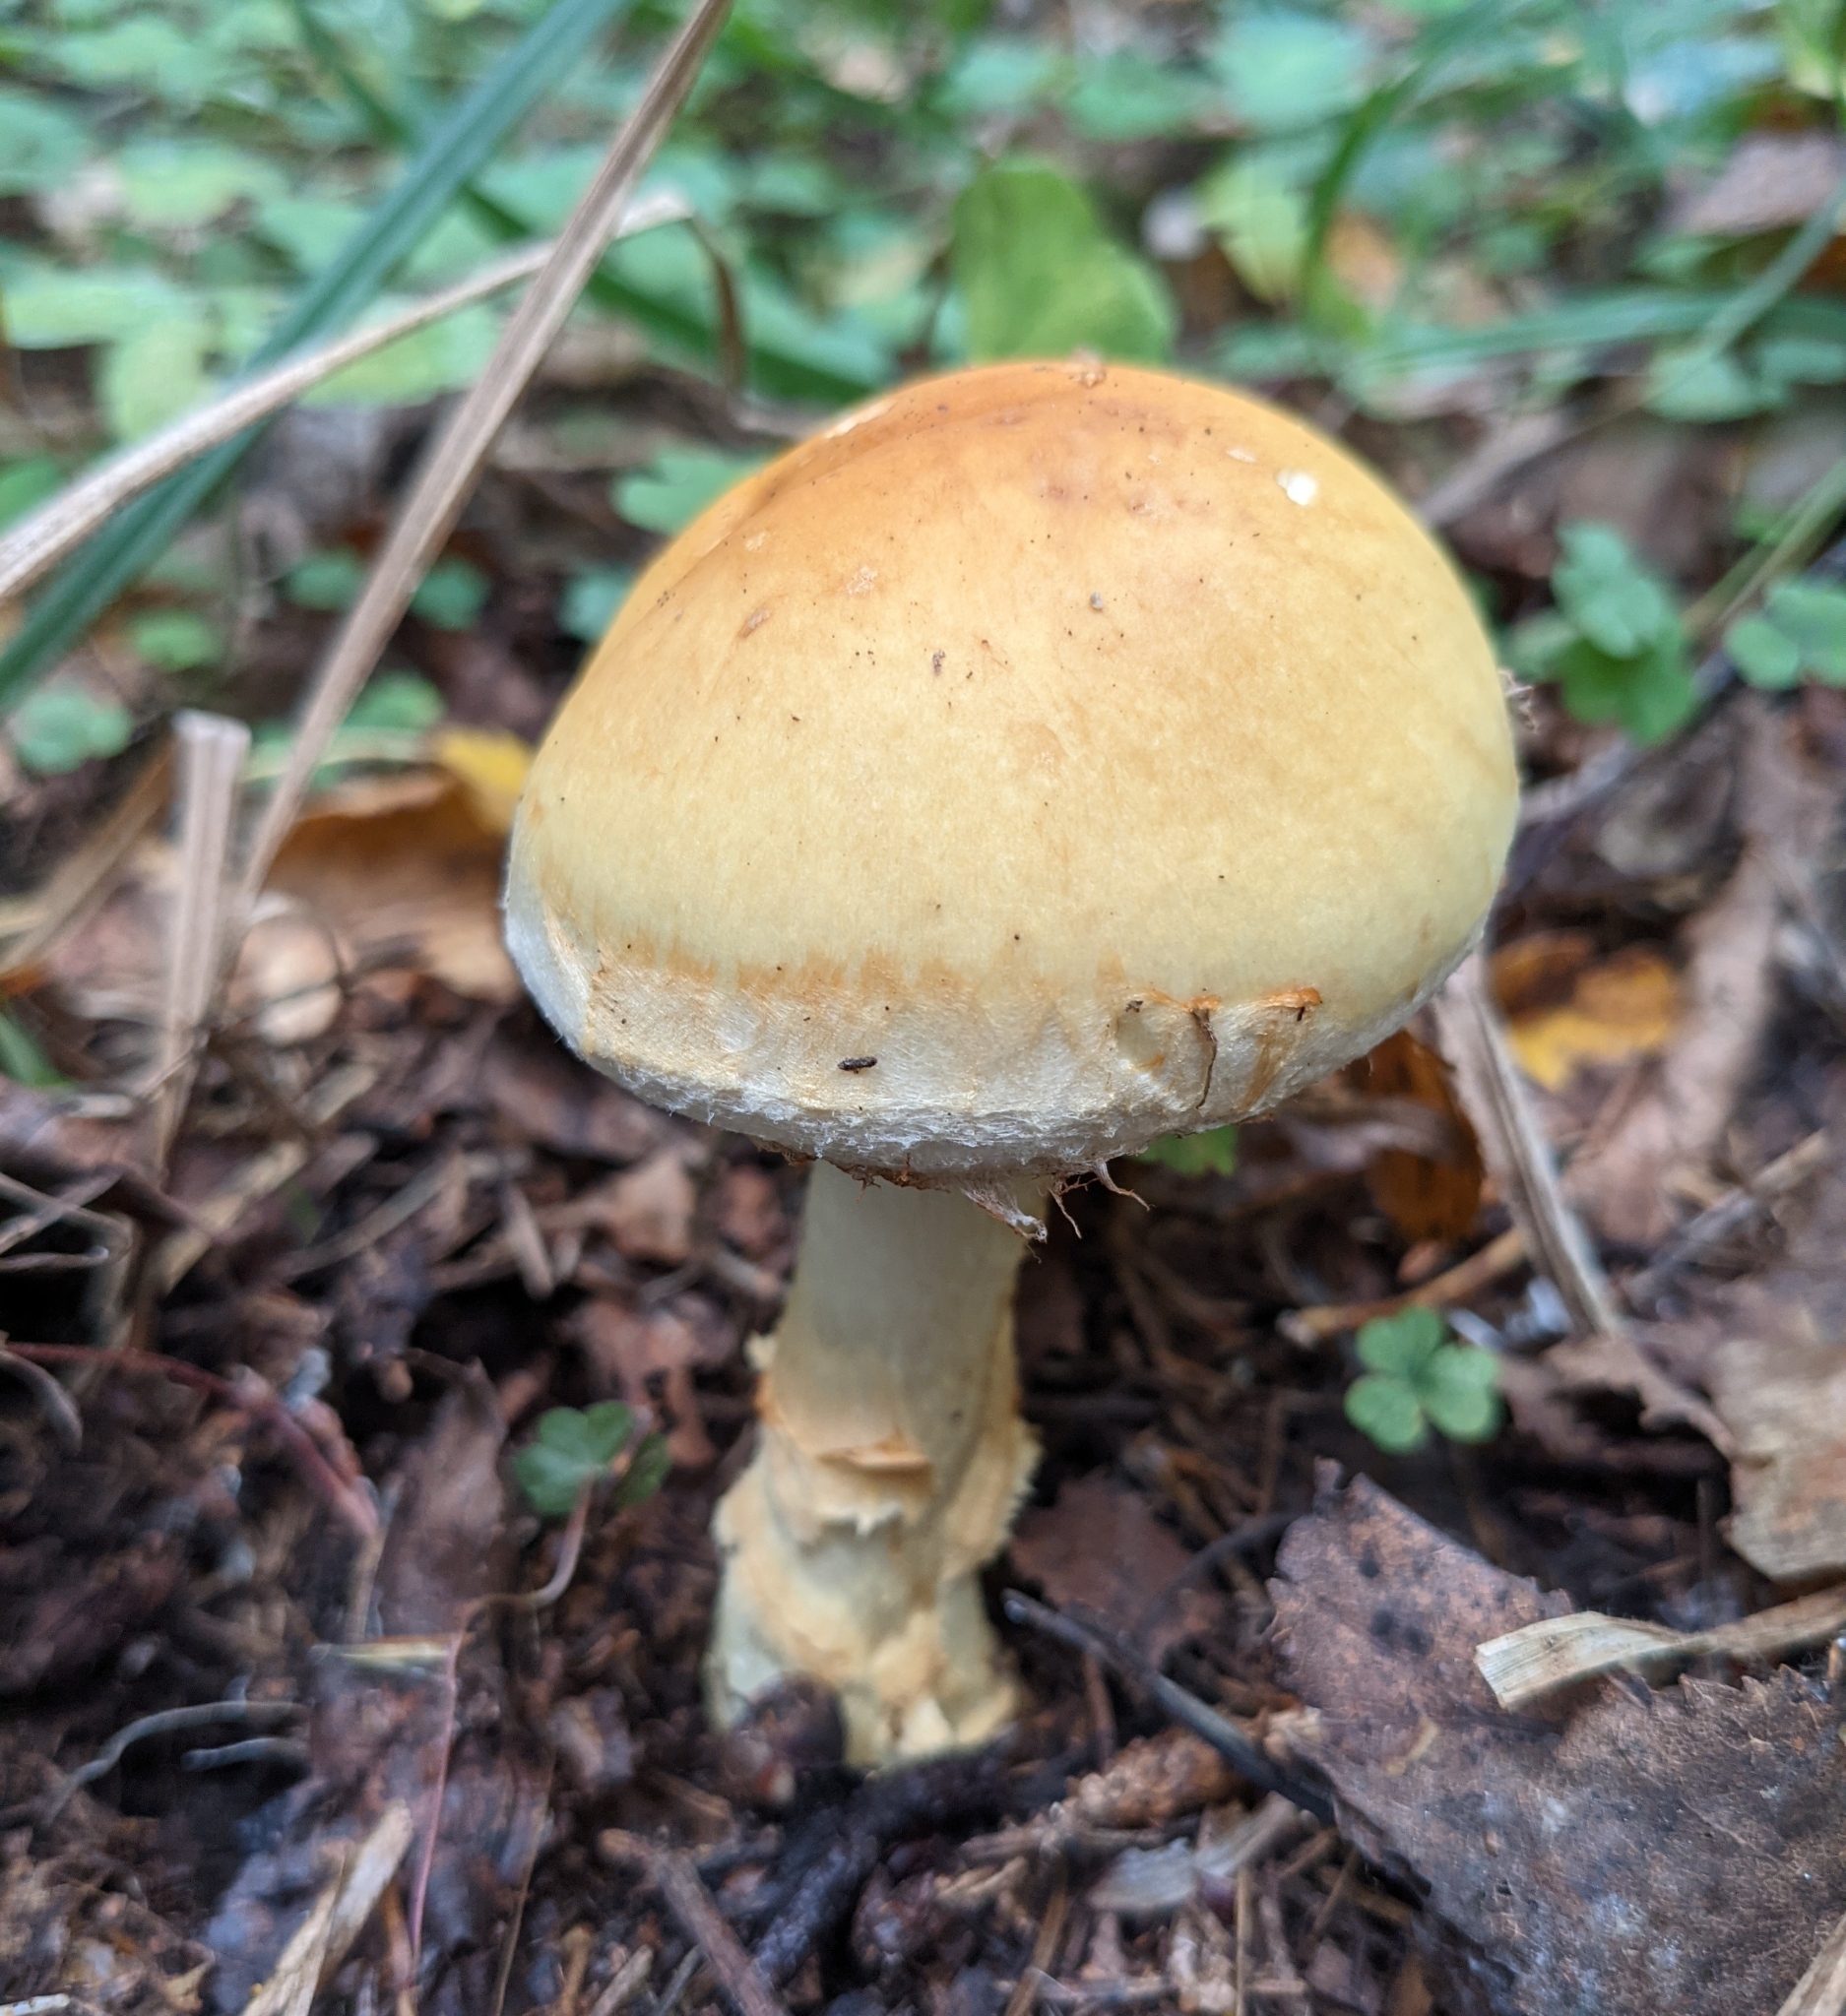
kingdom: Fungi
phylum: Basidiomycota
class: Agaricomycetes
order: Agaricales
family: Cortinariaceae
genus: Phlegmacium
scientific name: Phlegmacium triumphans
